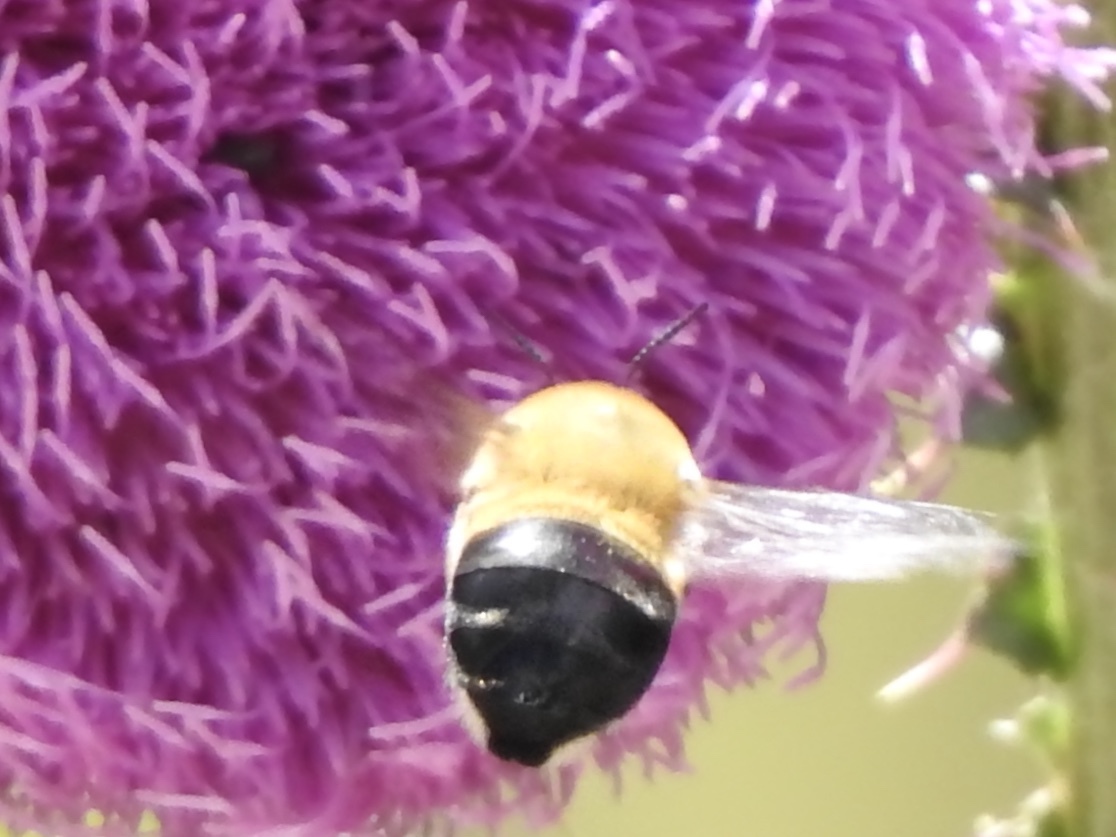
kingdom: Animalia
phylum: Arthropoda
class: Insecta
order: Hymenoptera
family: Apidae
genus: Anthophora
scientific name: Anthophora montana
